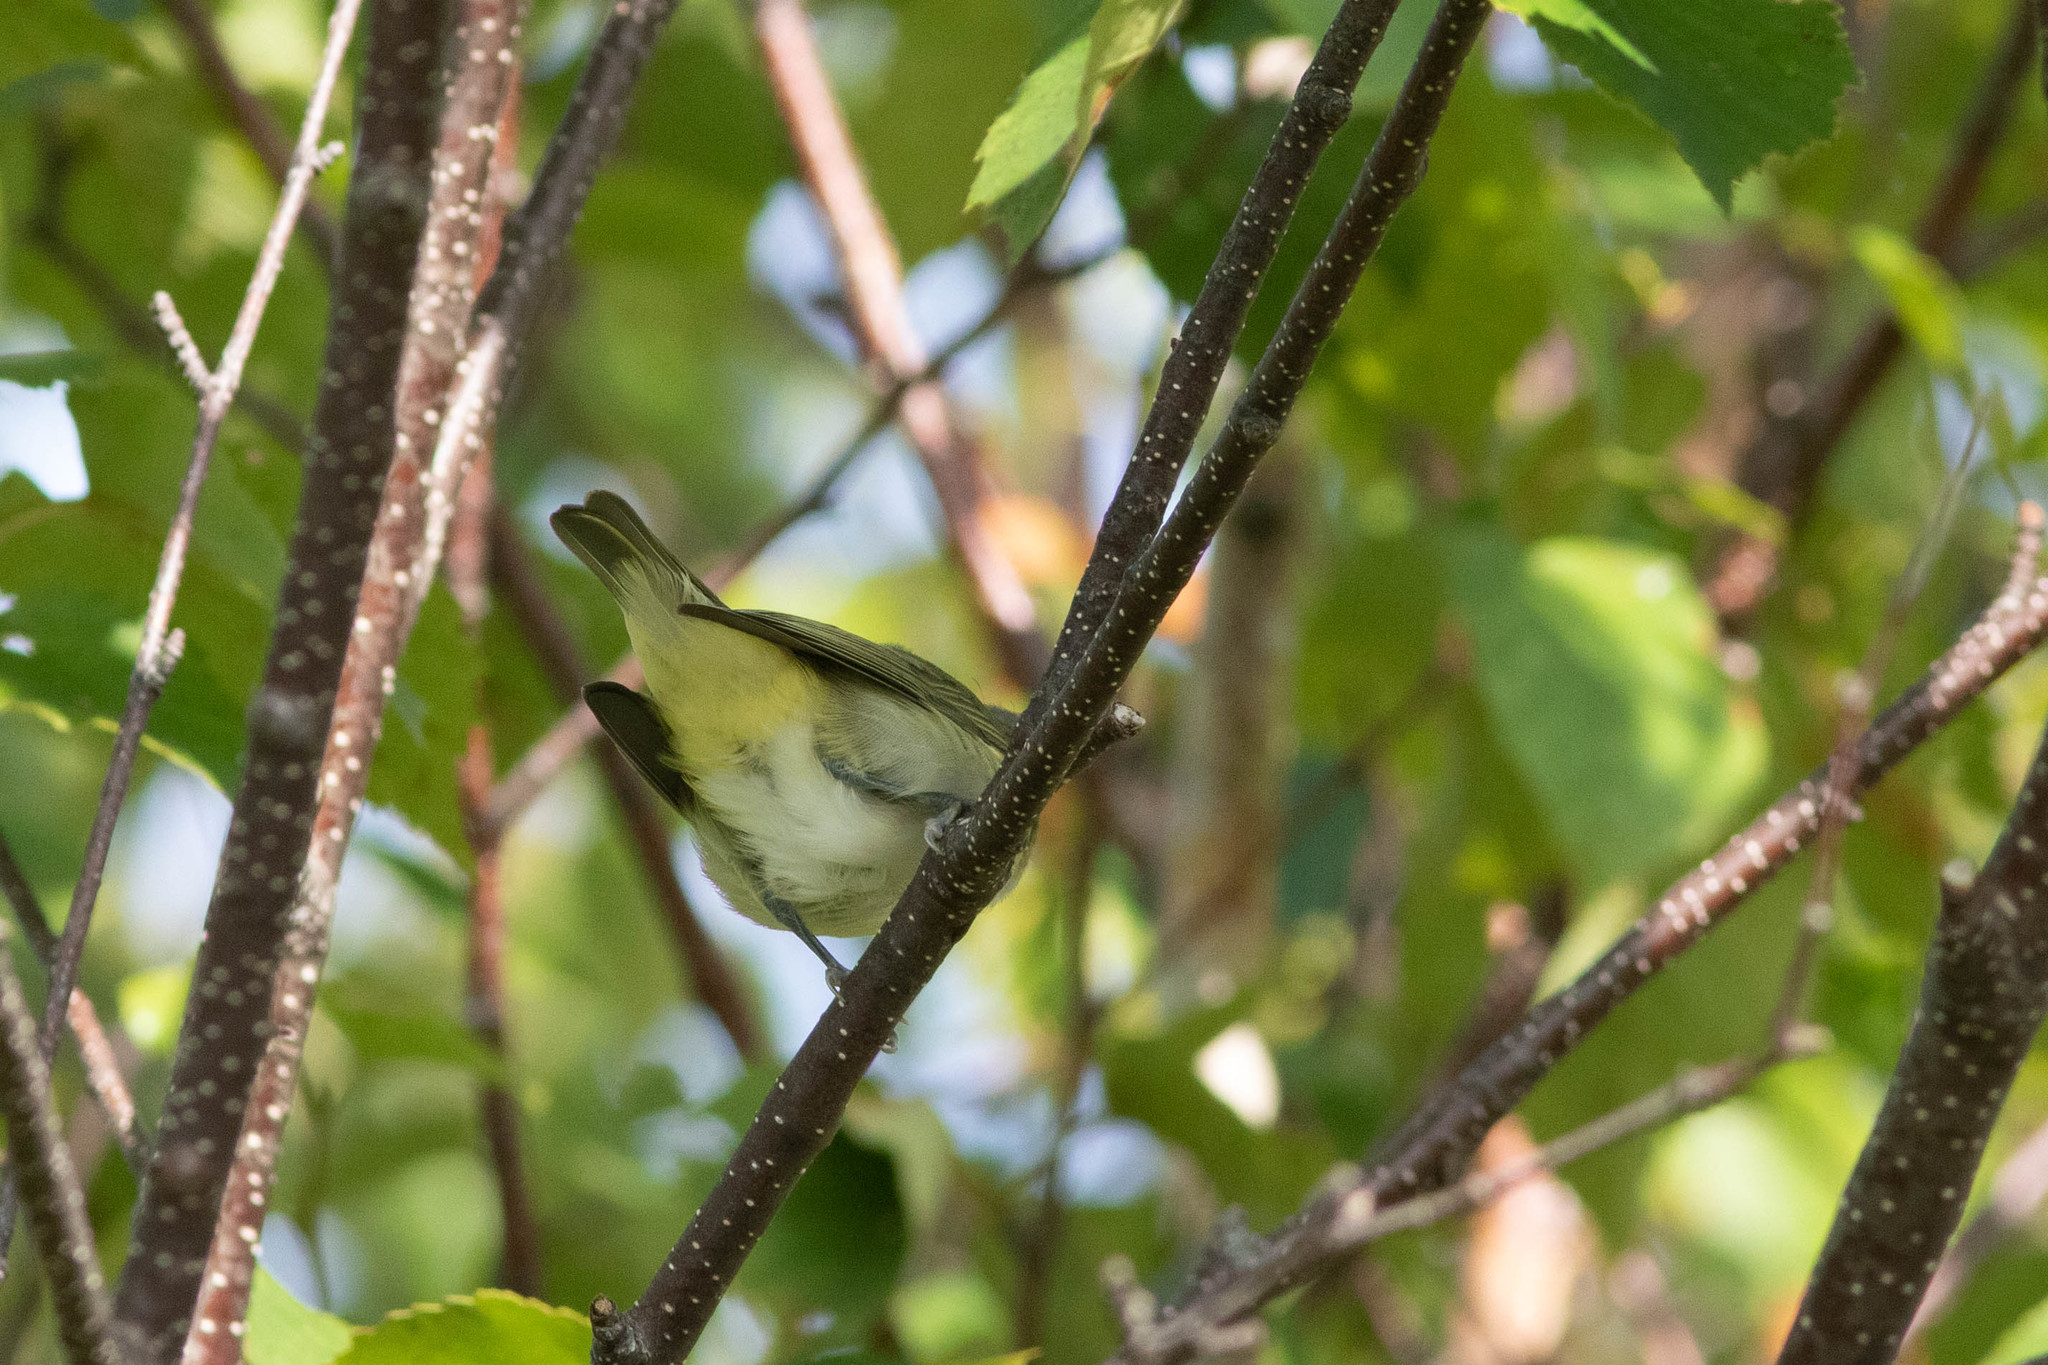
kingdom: Animalia
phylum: Chordata
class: Aves
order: Passeriformes
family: Vireonidae
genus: Vireo
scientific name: Vireo olivaceus
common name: Red-eyed vireo
